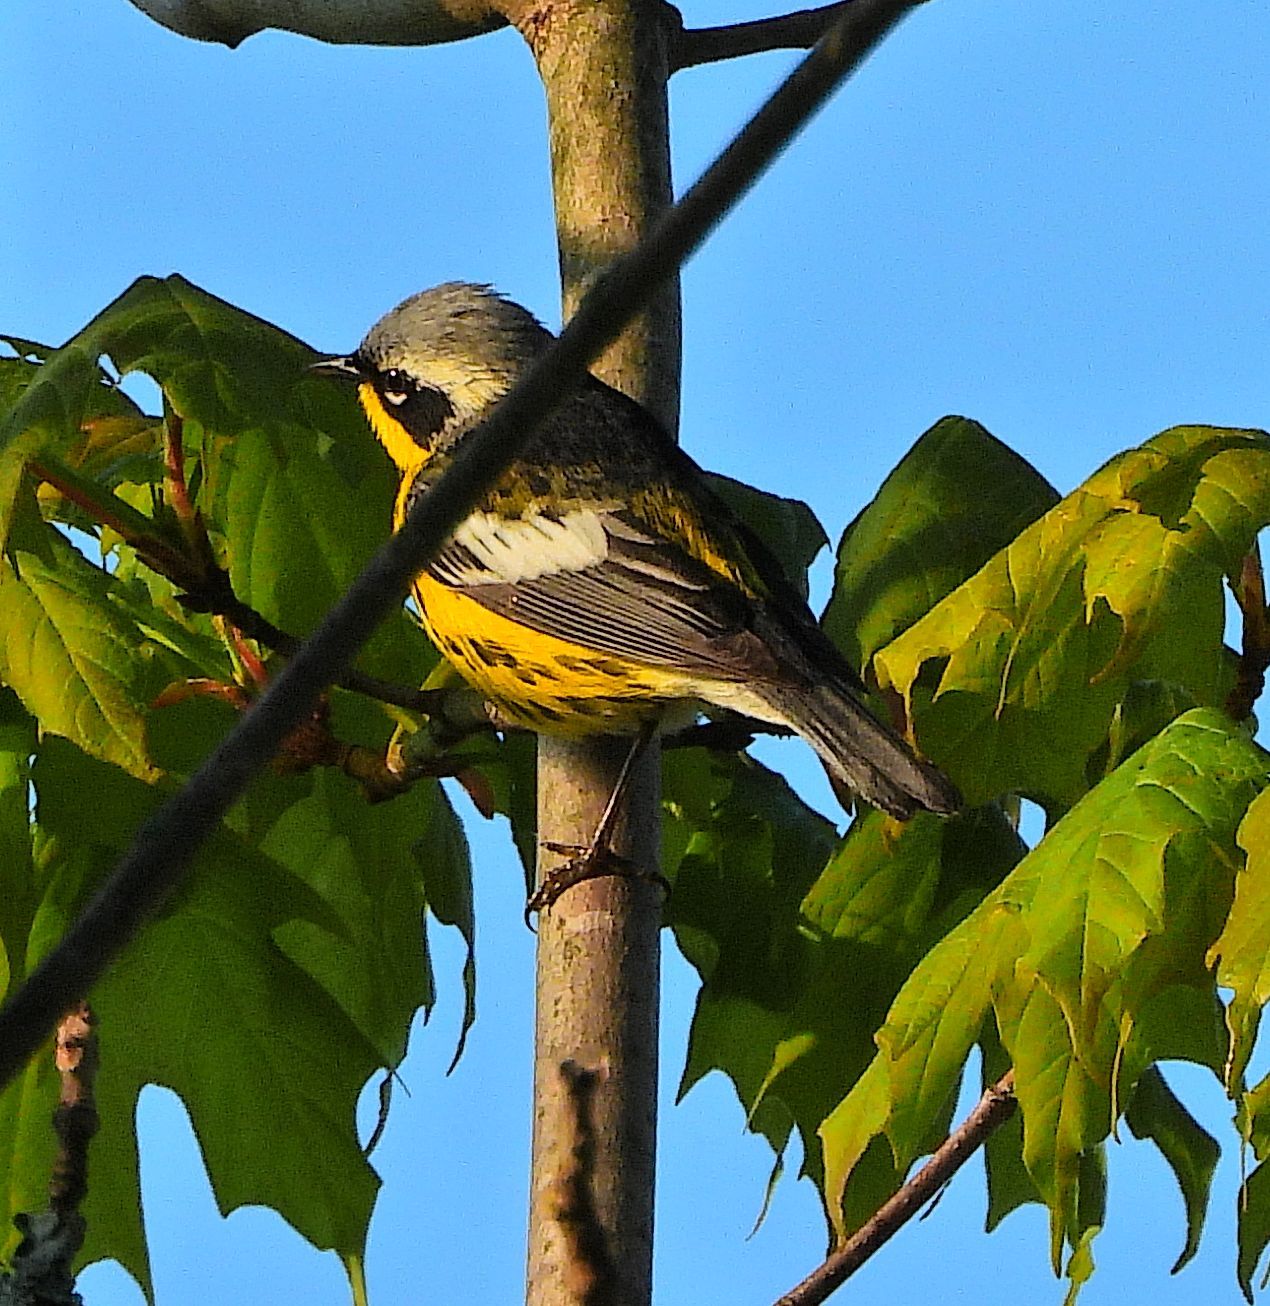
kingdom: Animalia
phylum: Chordata
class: Aves
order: Passeriformes
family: Parulidae
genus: Setophaga
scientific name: Setophaga magnolia
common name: Magnolia warbler
